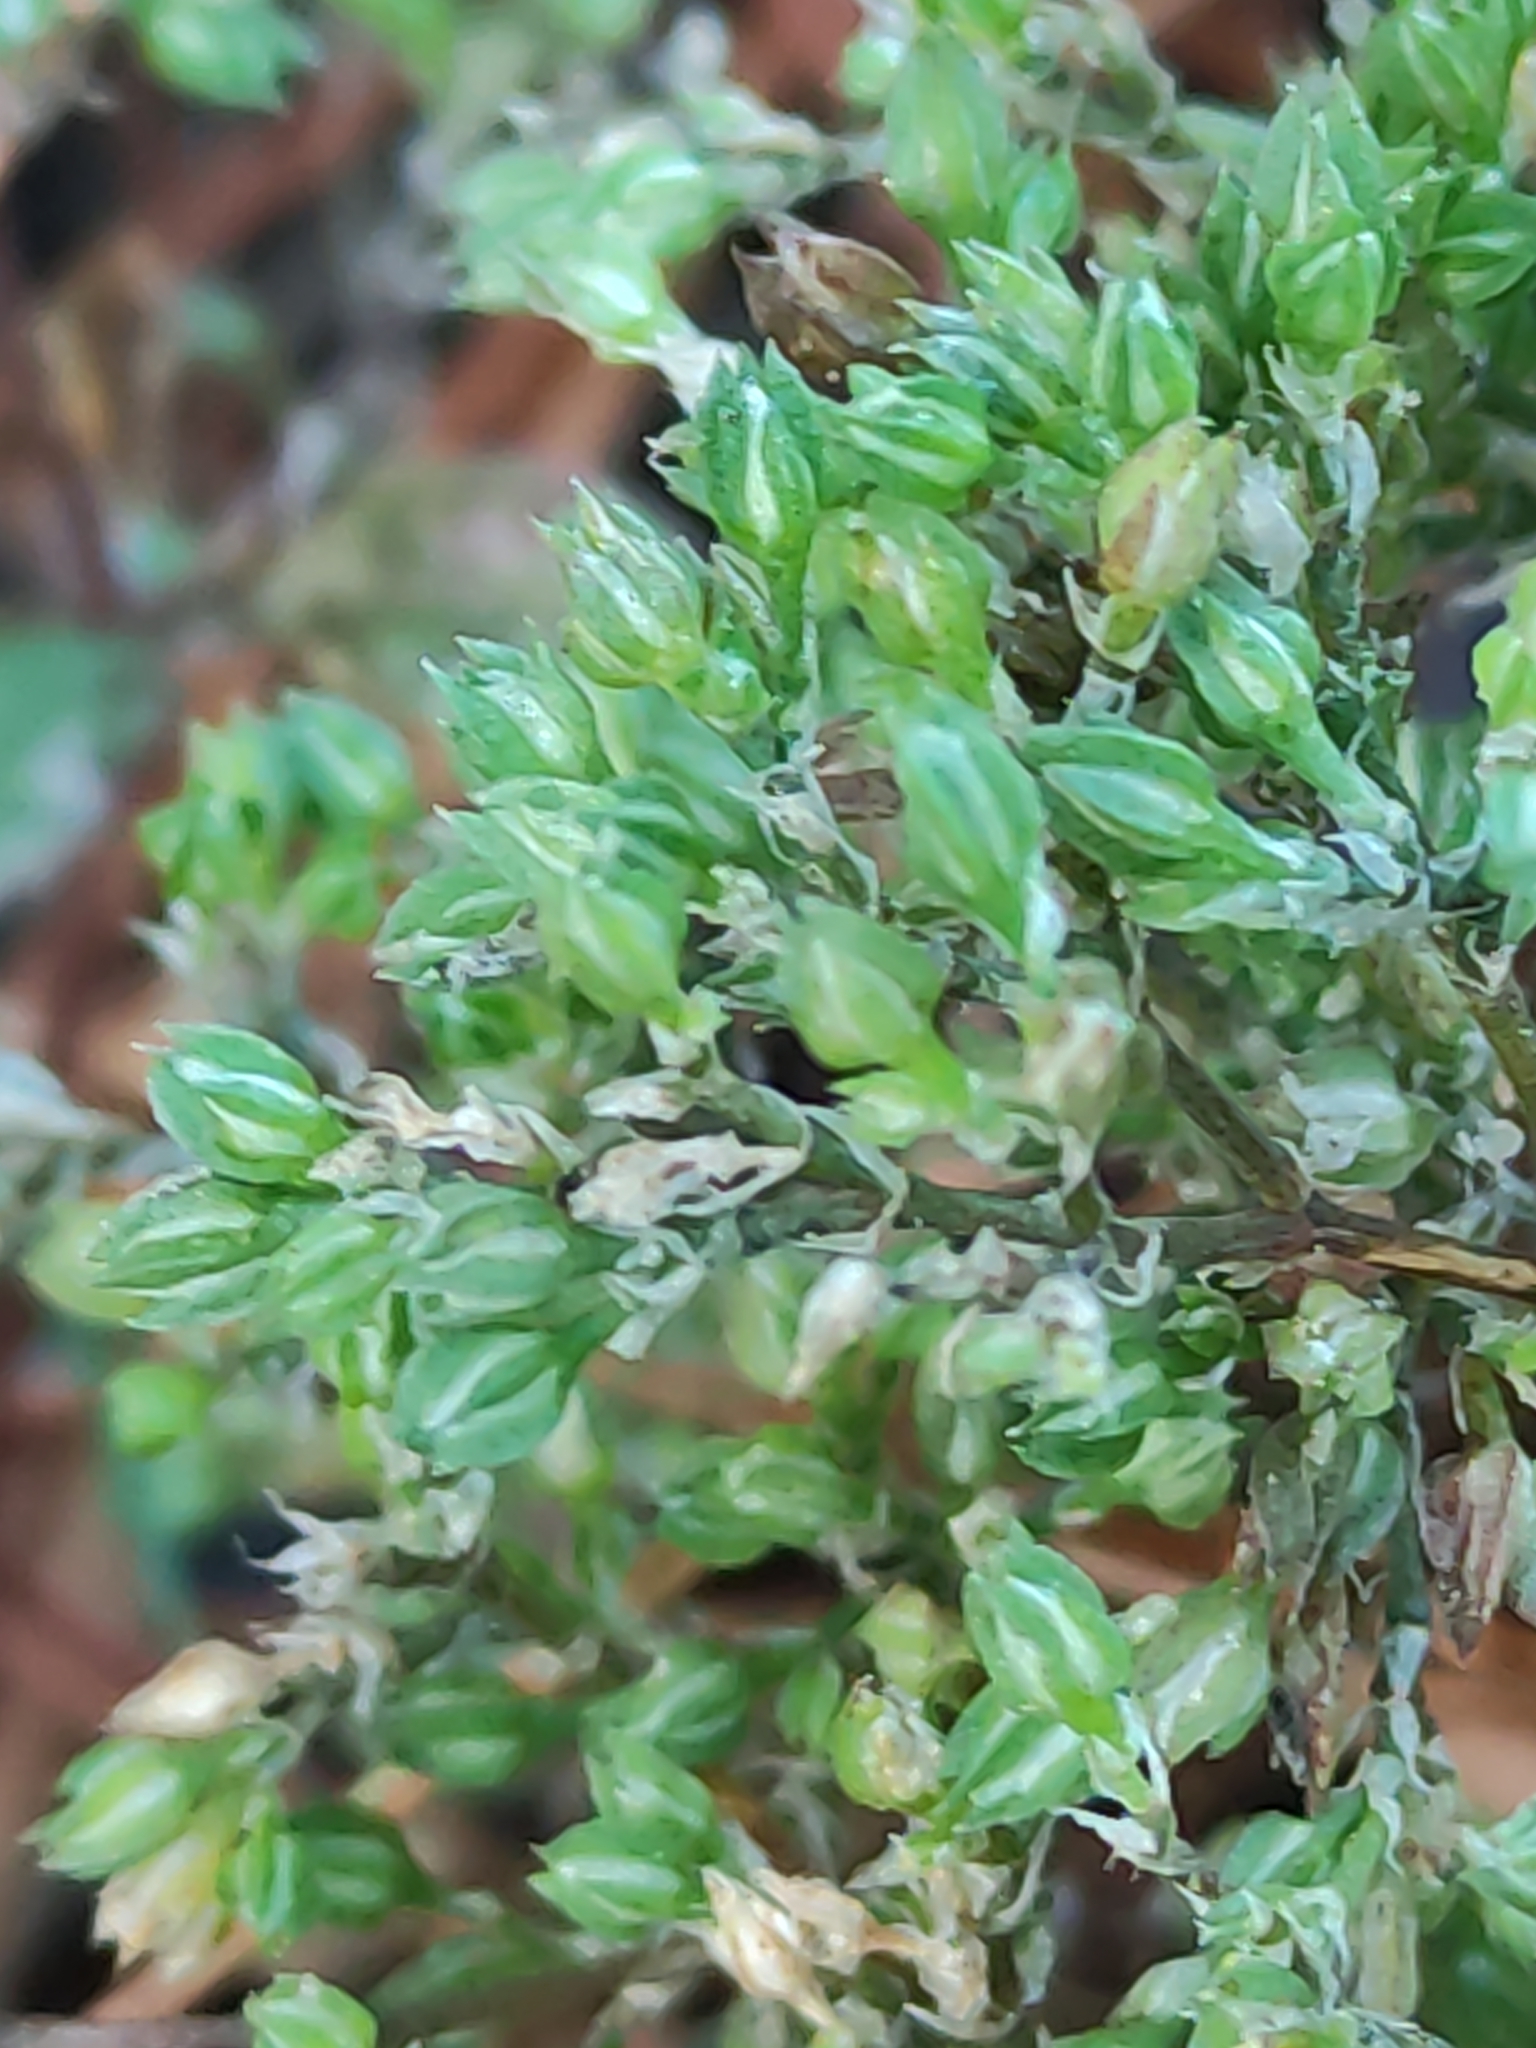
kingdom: Plantae
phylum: Tracheophyta
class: Magnoliopsida
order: Caryophyllales
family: Caryophyllaceae
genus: Polycarpon
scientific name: Polycarpon tetraphyllum
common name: Four-leaved all-seed
